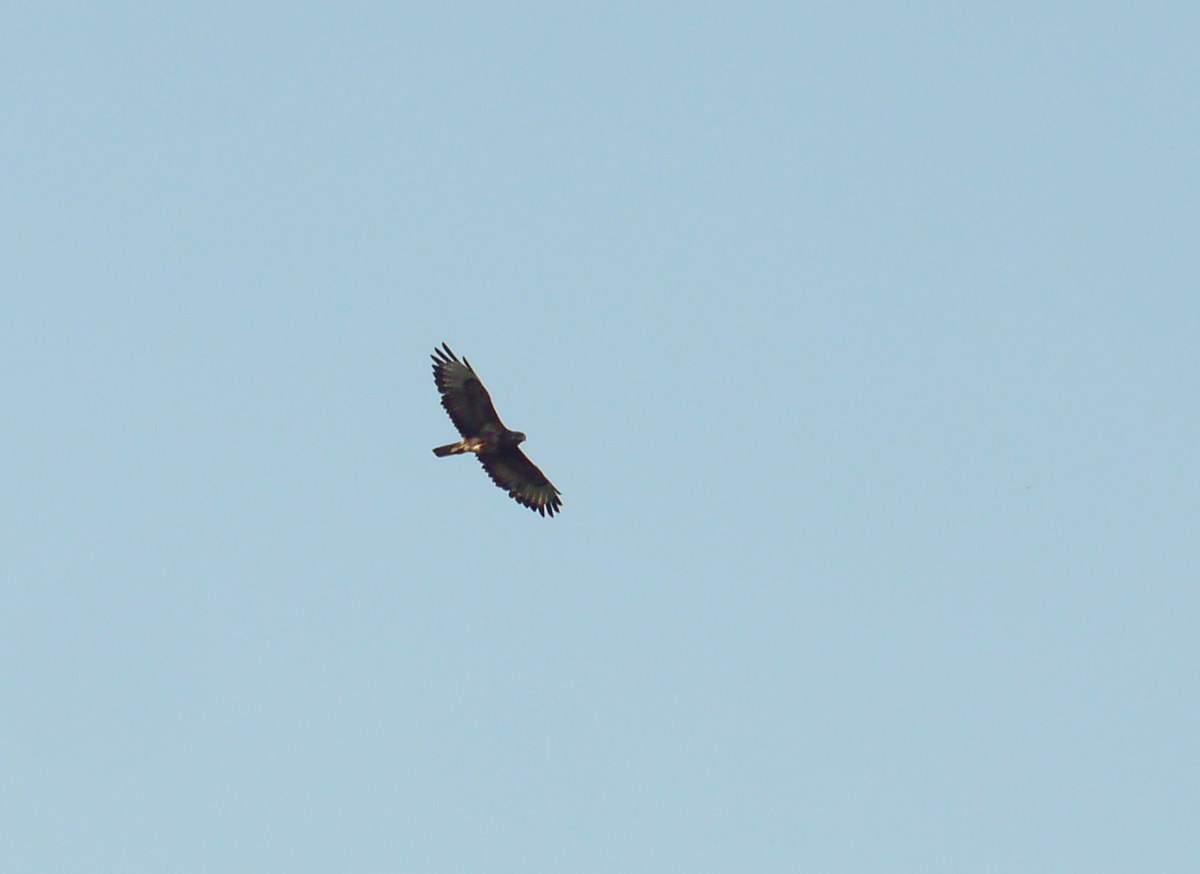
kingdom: Animalia
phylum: Chordata
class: Aves
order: Accipitriformes
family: Accipitridae
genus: Buteo
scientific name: Buteo buteo
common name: Common buzzard
